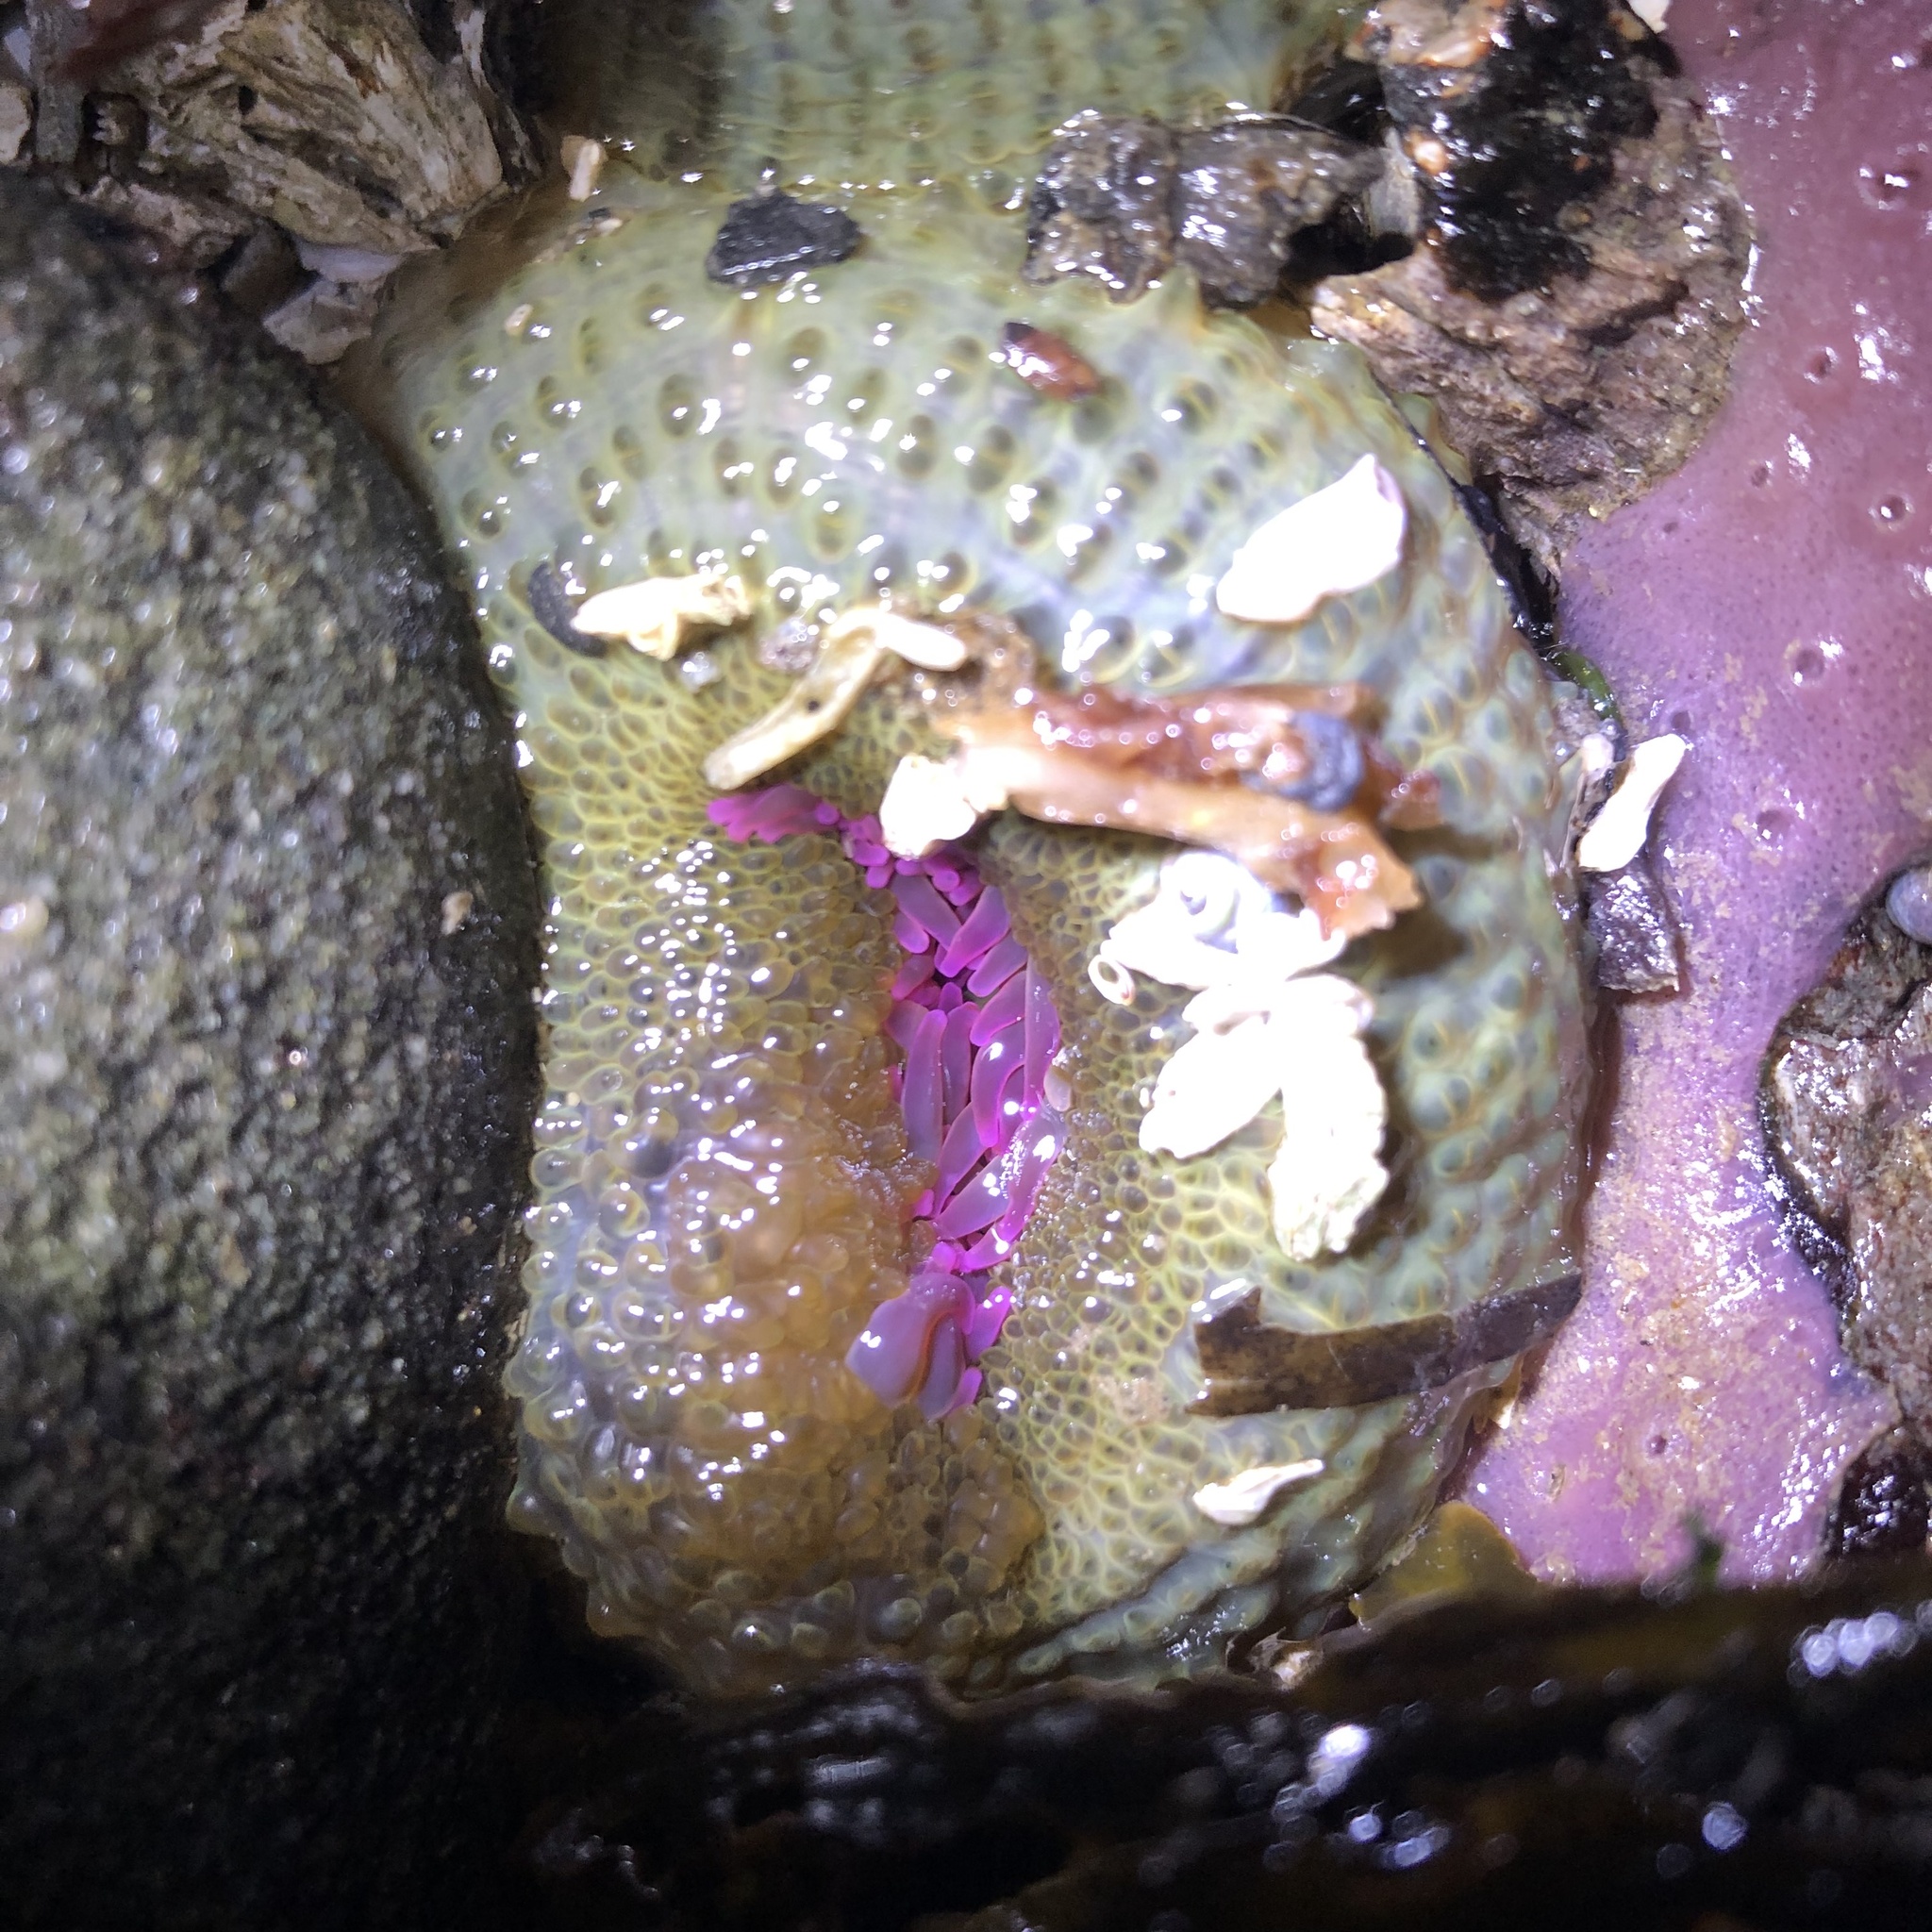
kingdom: Animalia
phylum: Cnidaria
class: Anthozoa
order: Actiniaria
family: Actiniidae
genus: Anthopleura
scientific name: Anthopleura elegantissima
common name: Clonal anemone
